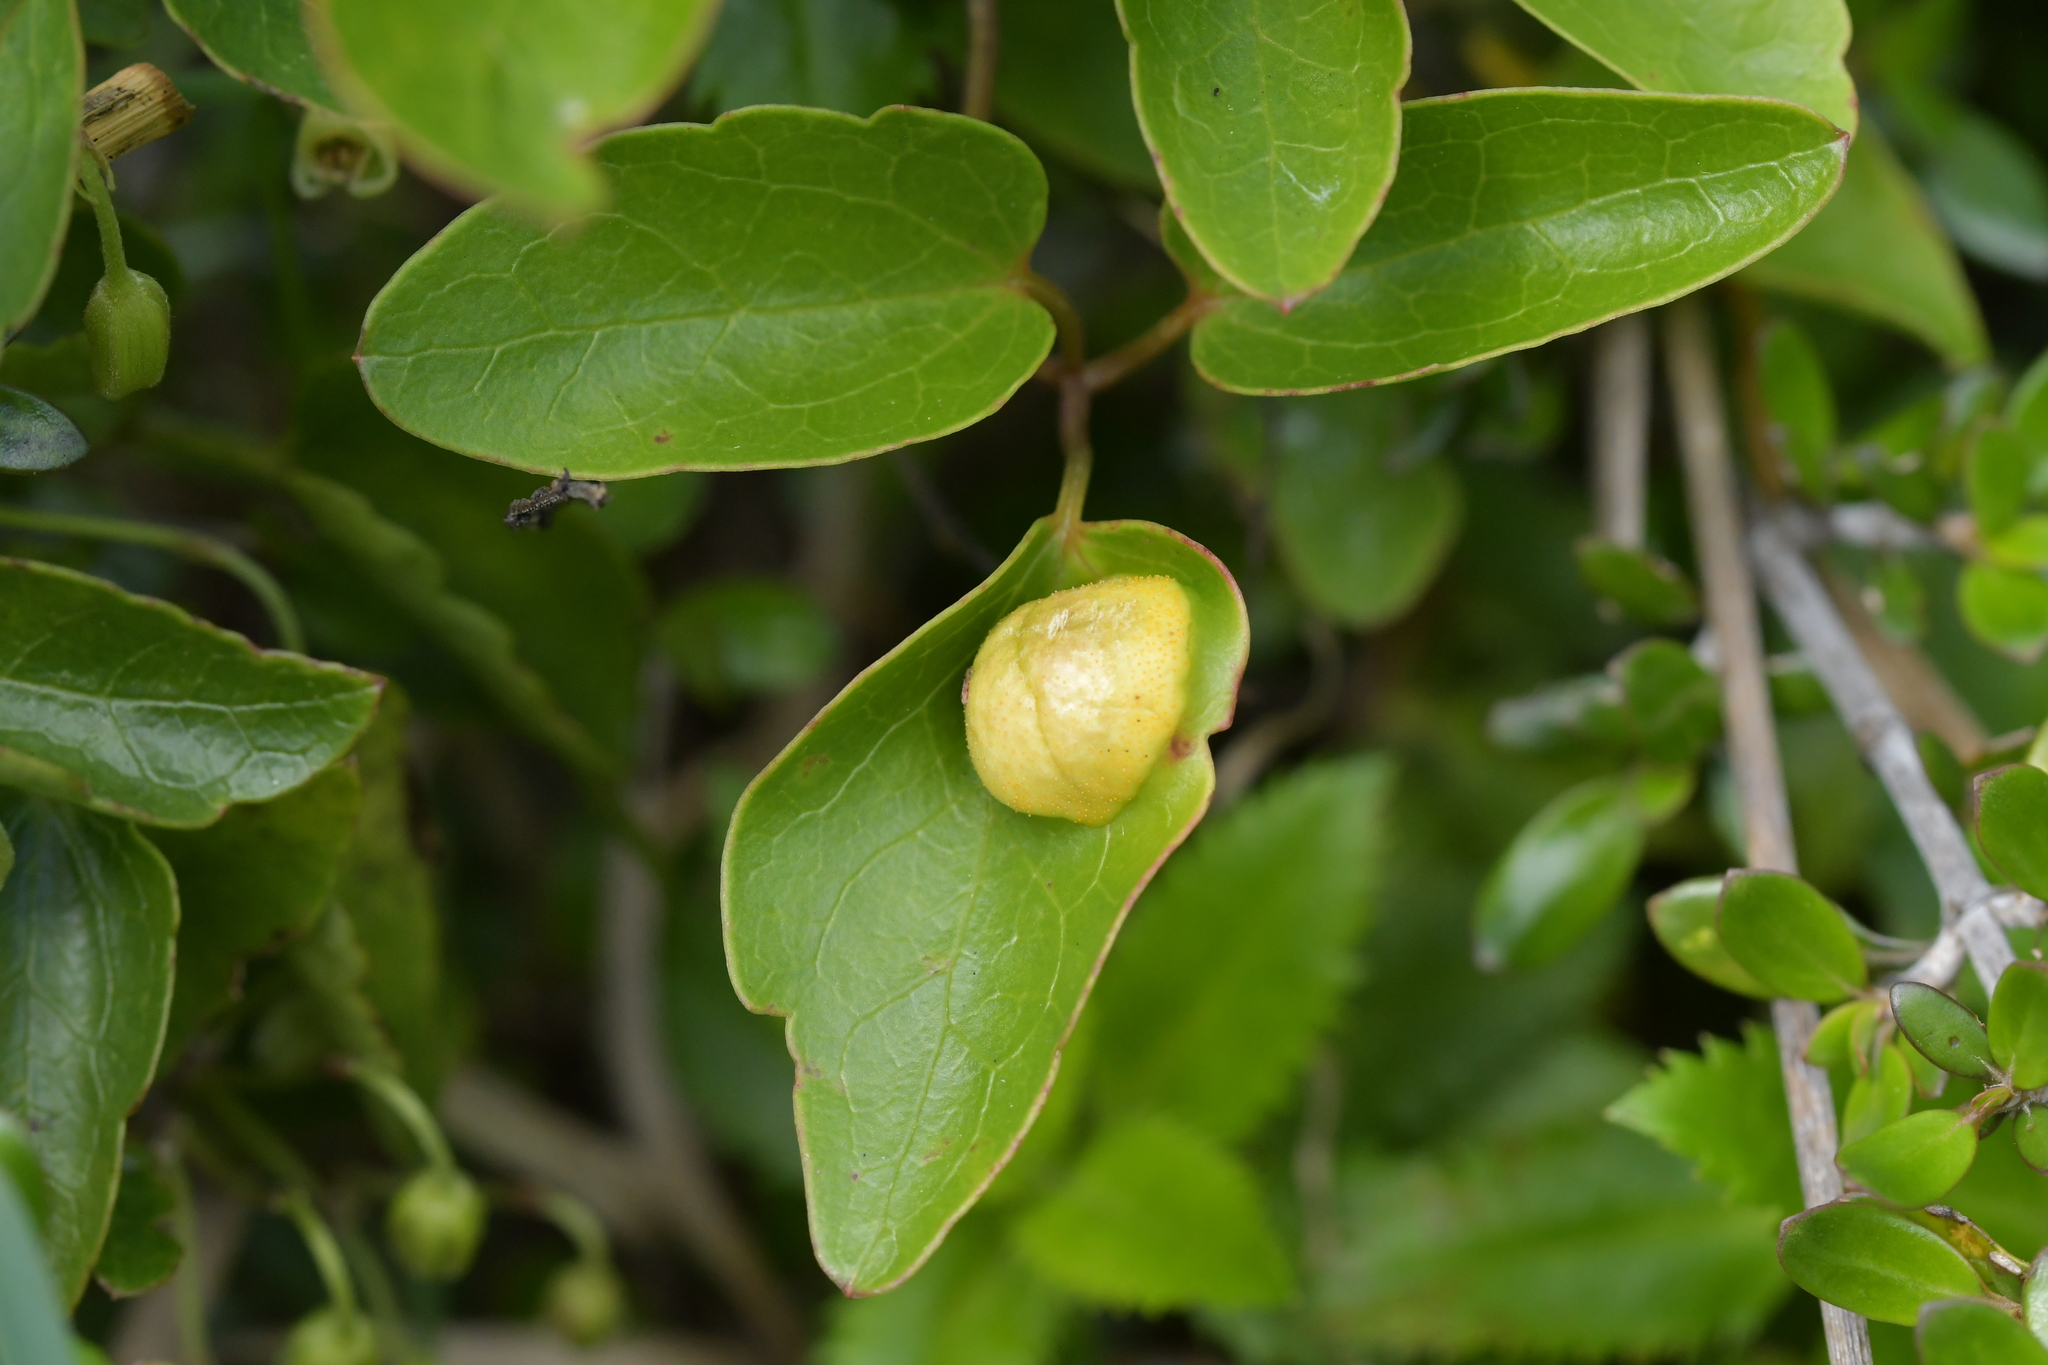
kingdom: Fungi
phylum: Basidiomycota
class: Pucciniomycetes
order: Pucciniales
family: Pucciniaceae
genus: Puccinia
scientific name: Puccinia otagensis
